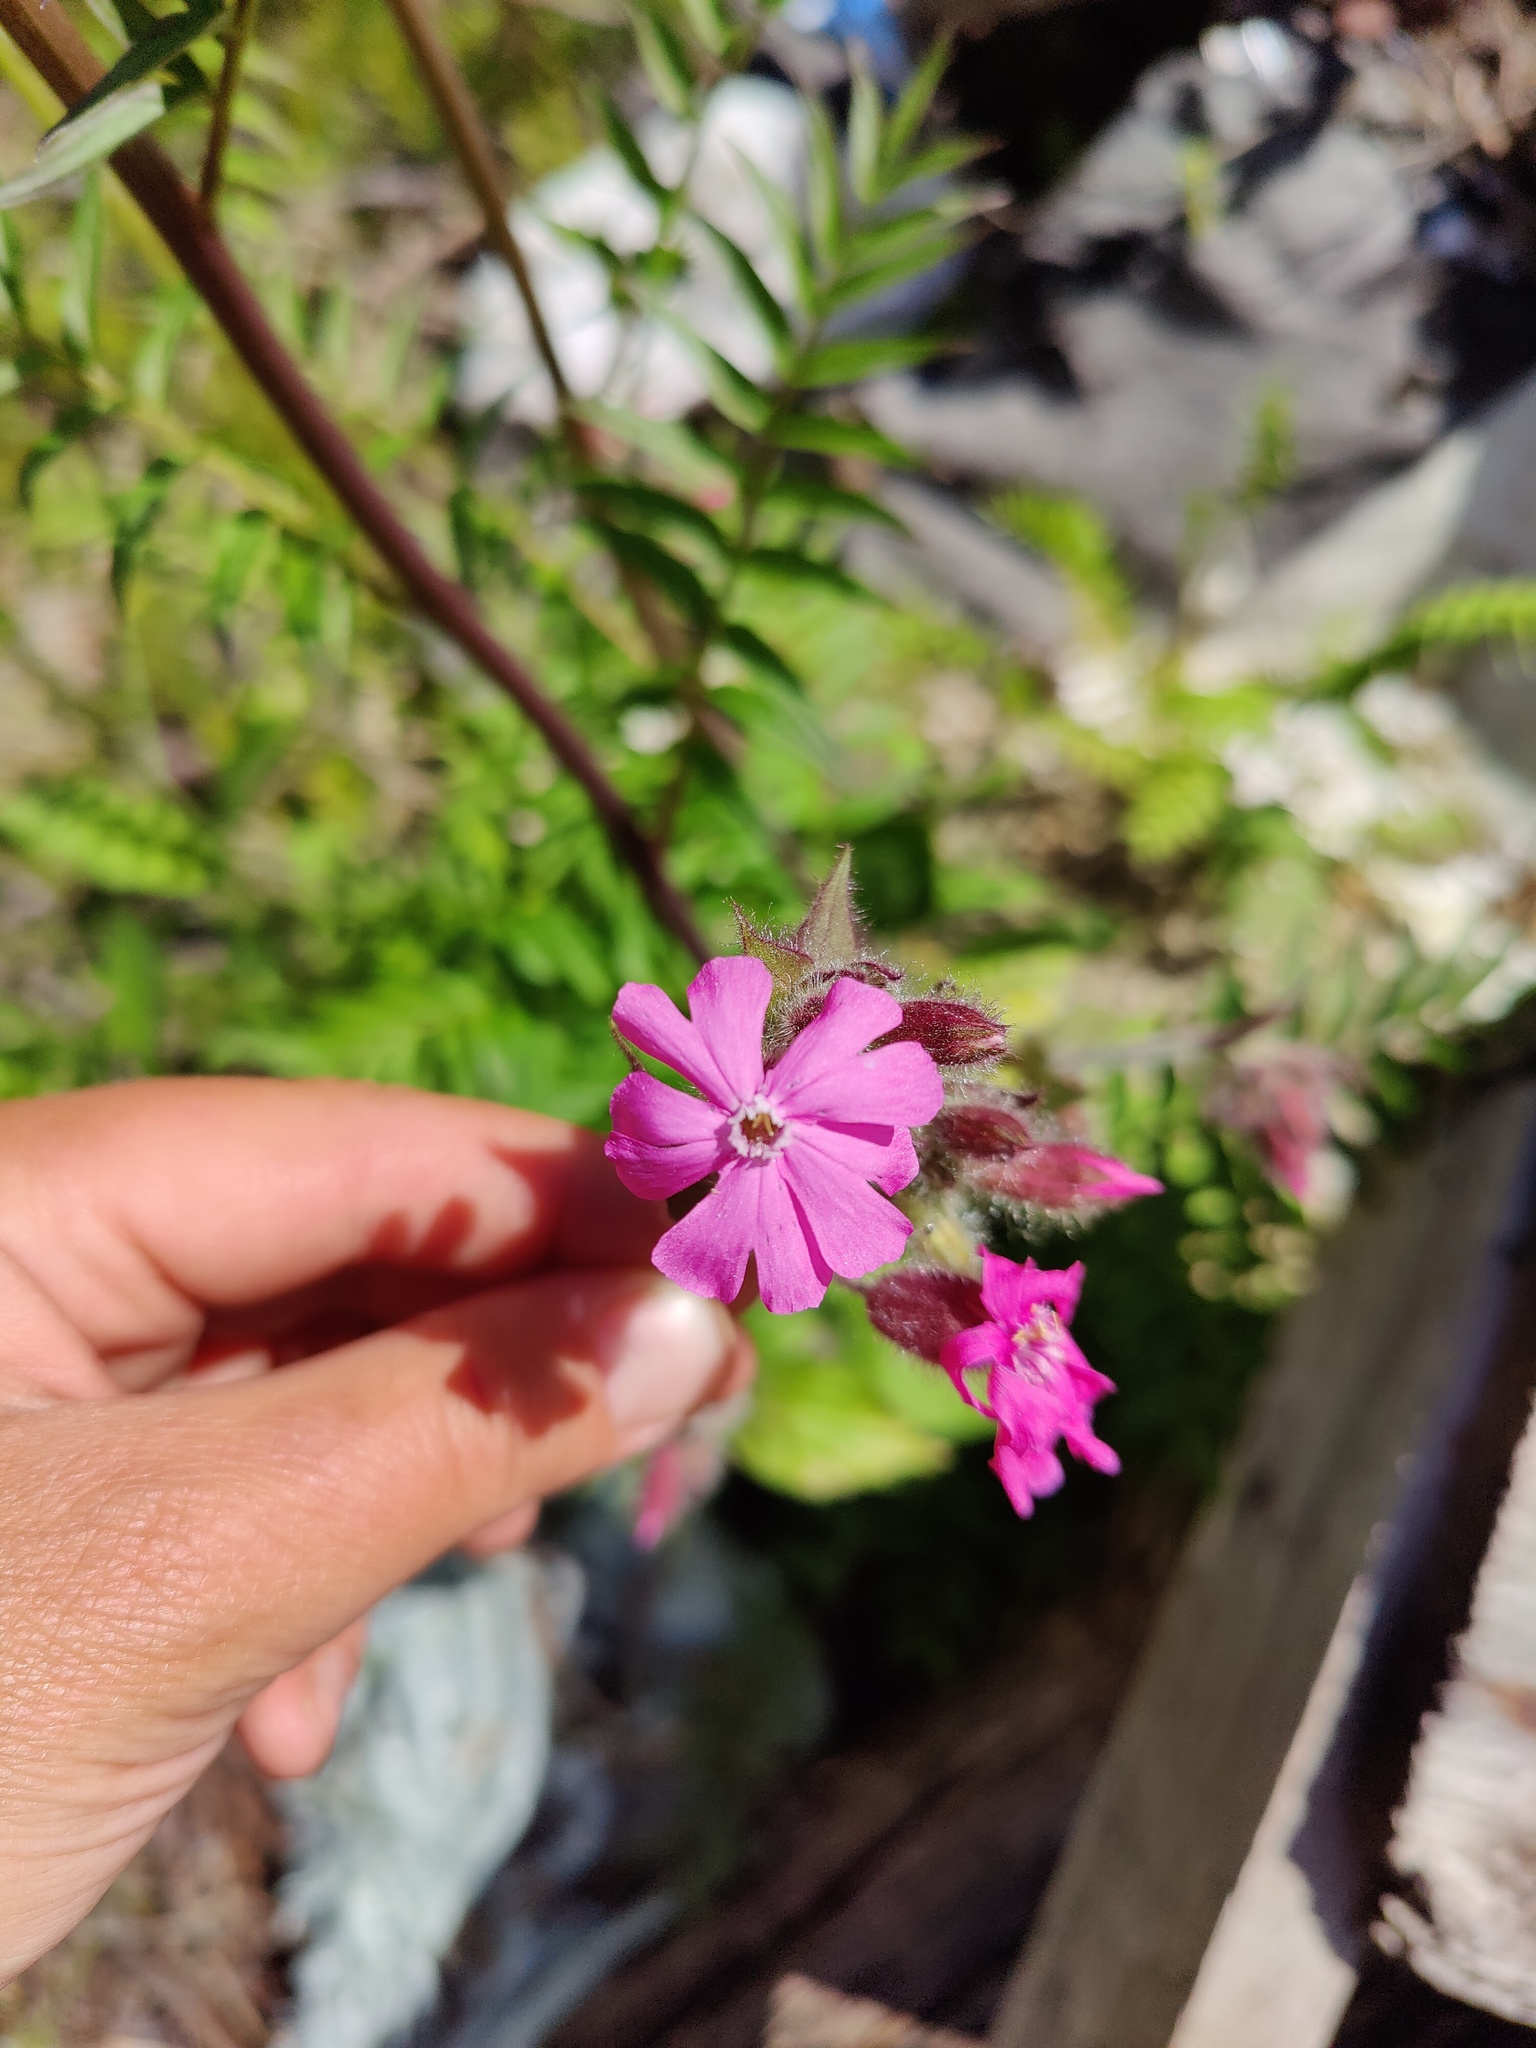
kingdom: Plantae
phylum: Tracheophyta
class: Magnoliopsida
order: Caryophyllales
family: Caryophyllaceae
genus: Silene
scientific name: Silene dioica
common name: Red campion
